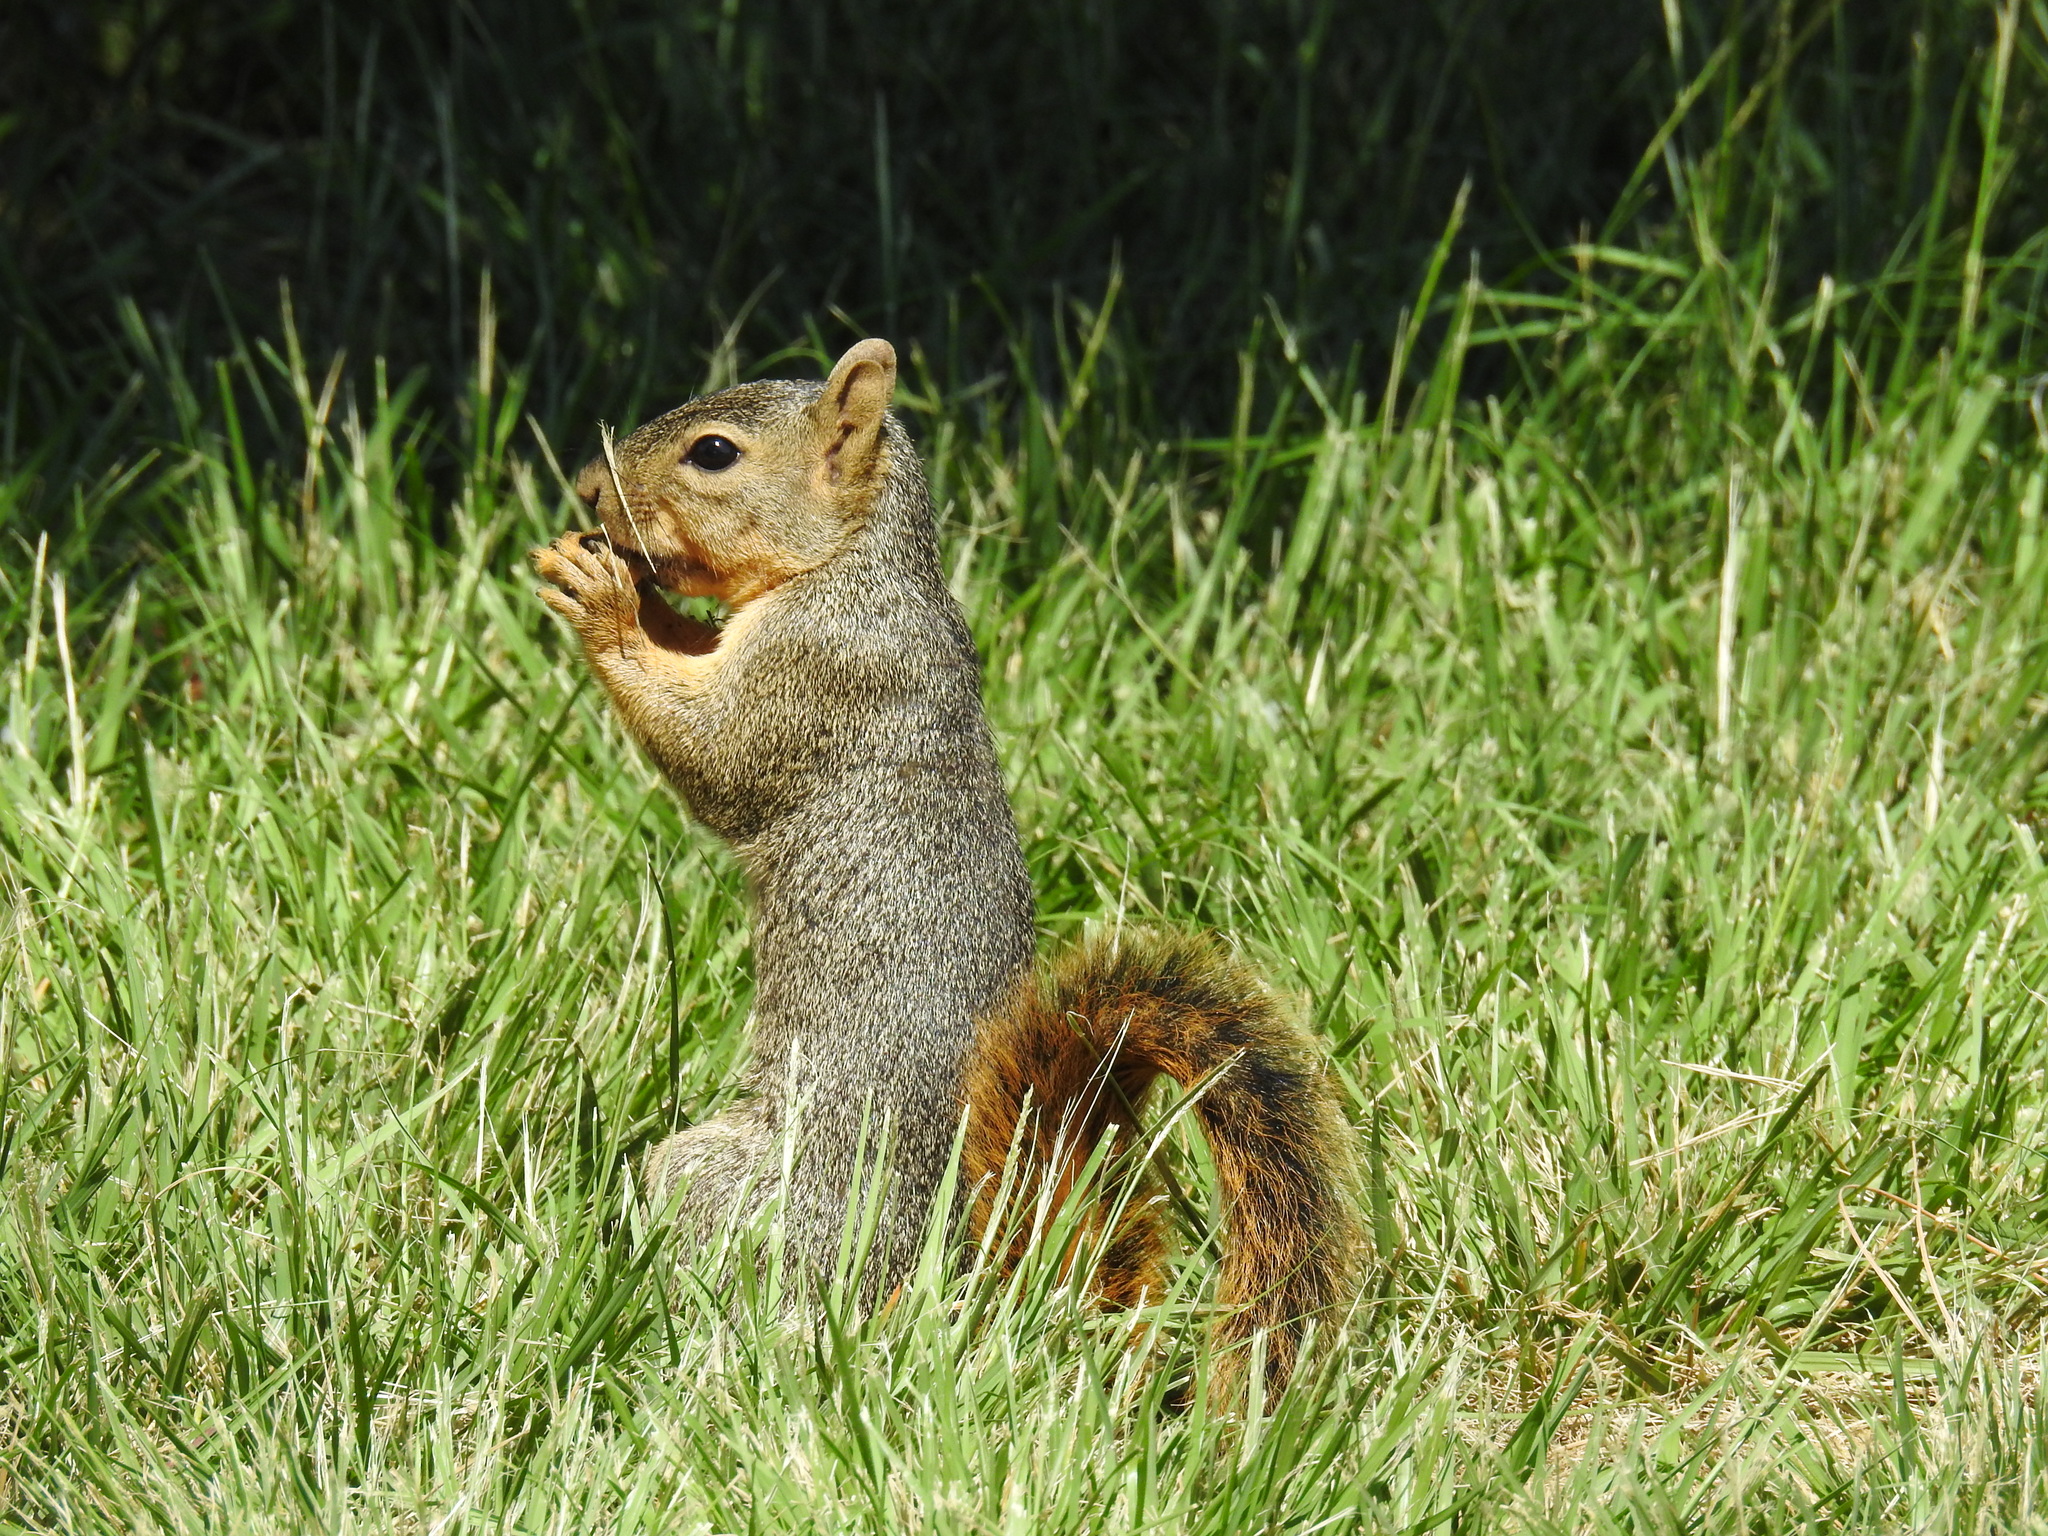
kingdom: Animalia
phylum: Chordata
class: Mammalia
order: Rodentia
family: Sciuridae
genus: Sciurus
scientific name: Sciurus niger
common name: Fox squirrel
